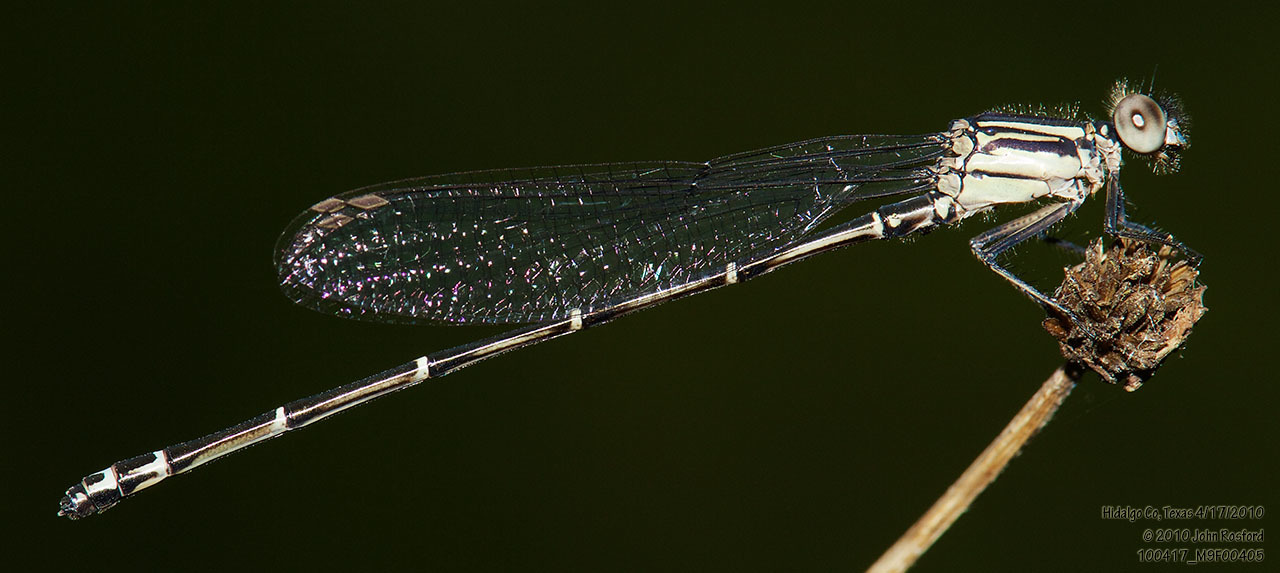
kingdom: Animalia
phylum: Arthropoda
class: Insecta
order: Odonata
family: Coenagrionidae
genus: Argia
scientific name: Argia translata
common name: Dusky dancer
